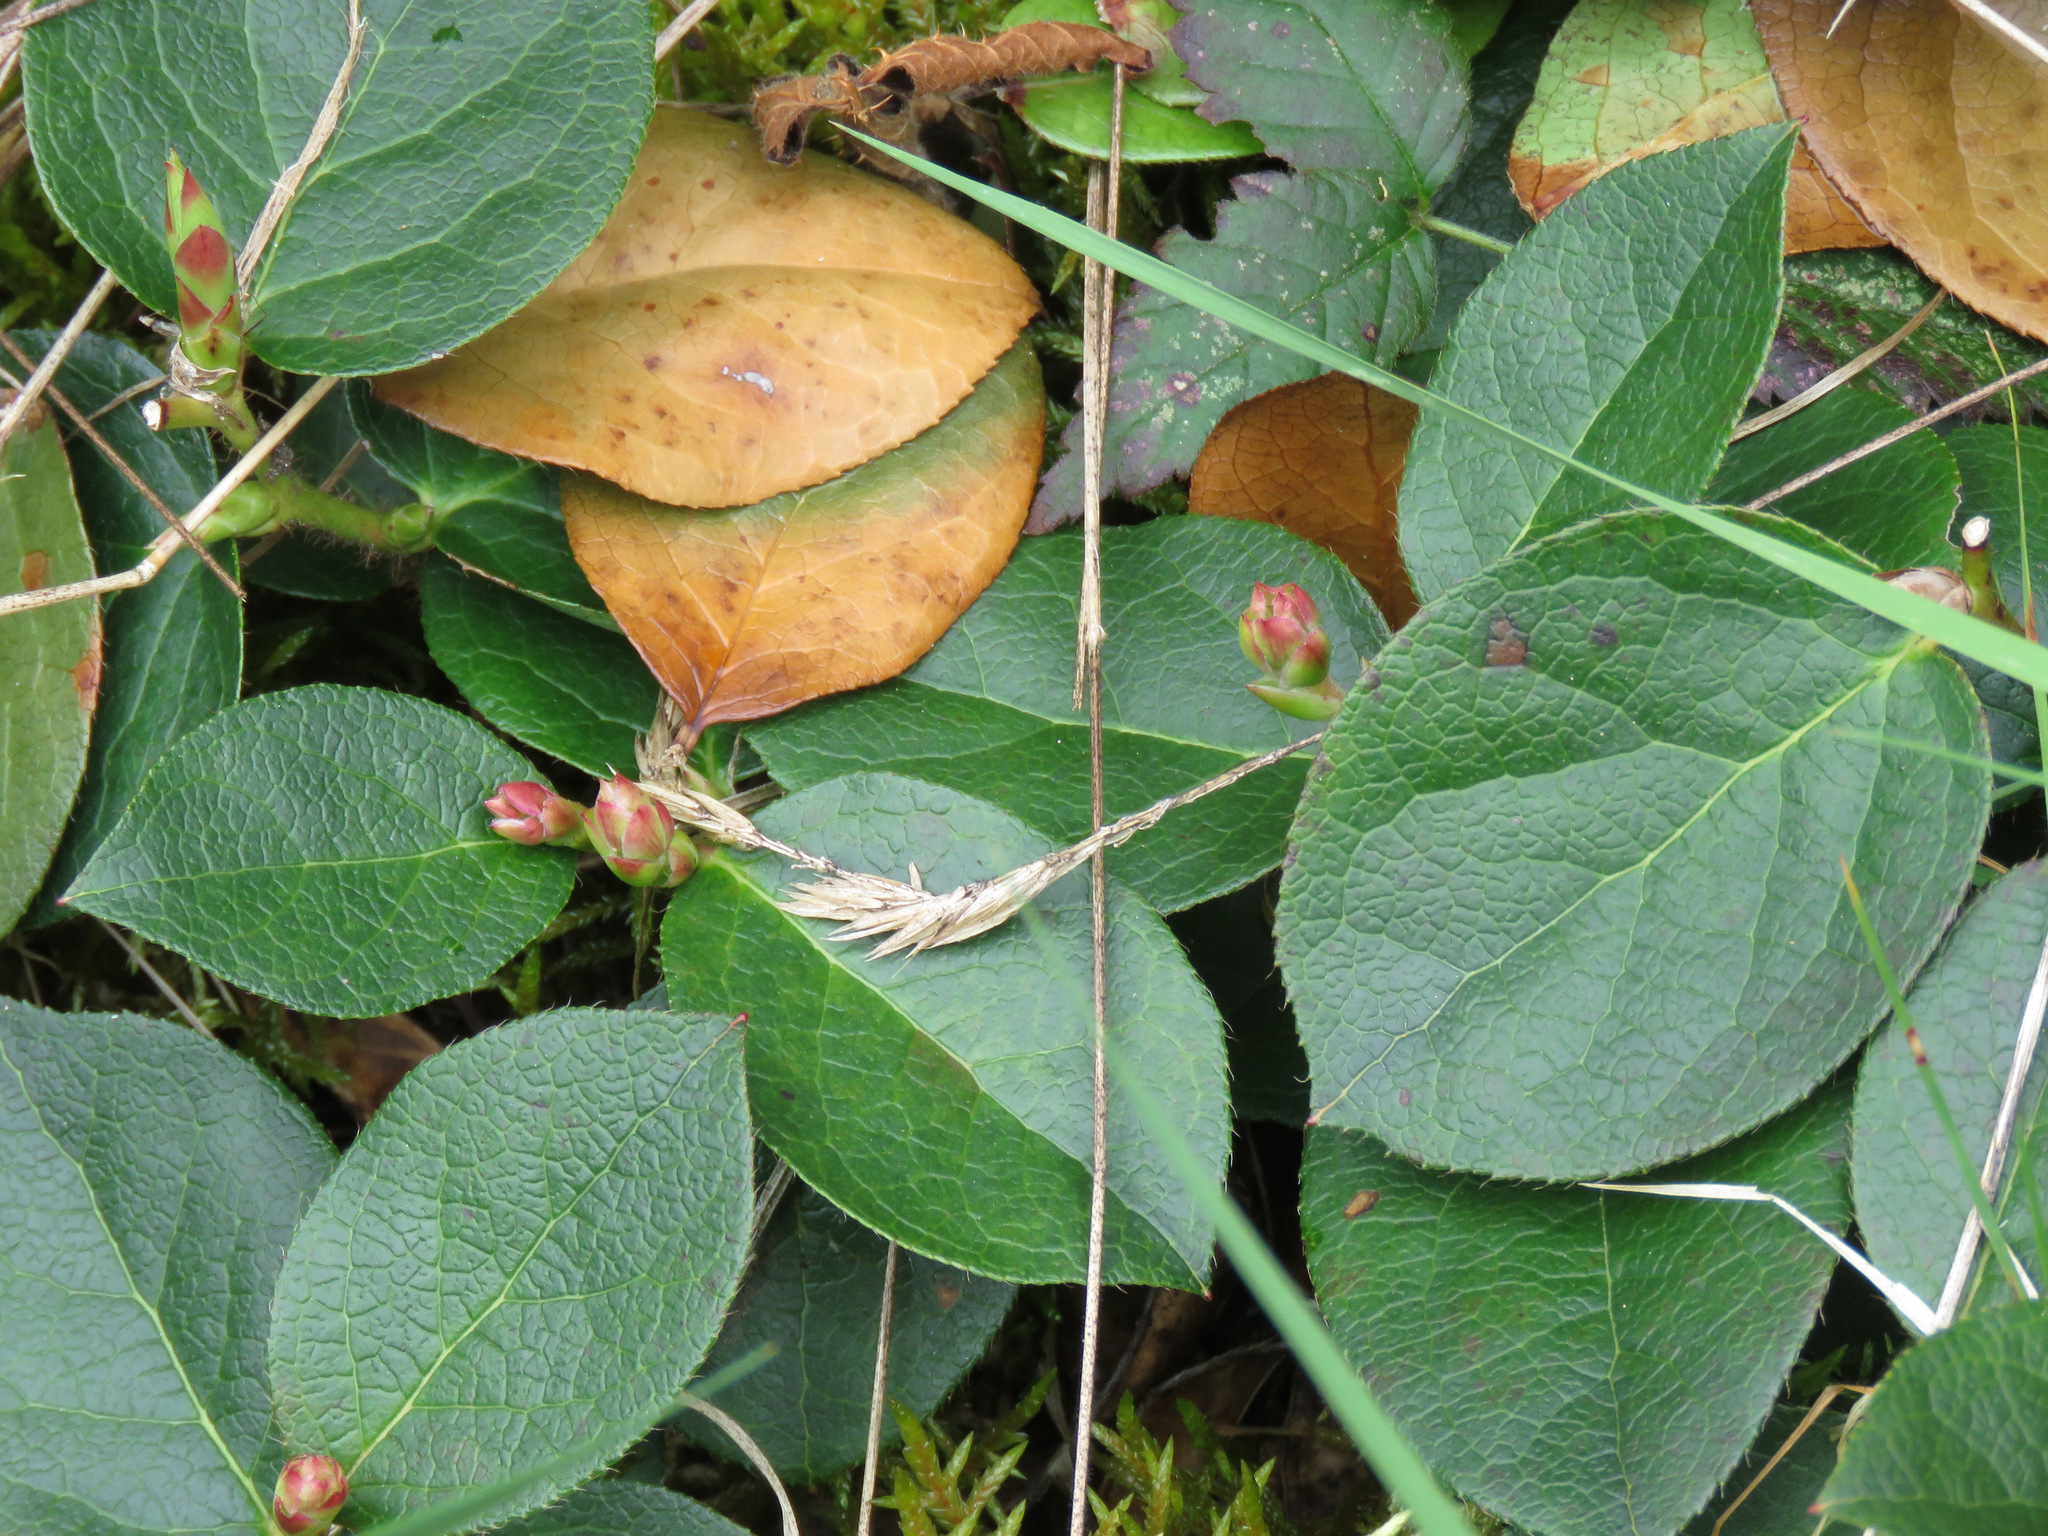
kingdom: Plantae
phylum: Tracheophyta
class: Magnoliopsida
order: Ericales
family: Ericaceae
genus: Gaultheria
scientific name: Gaultheria shallon
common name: Shallon
